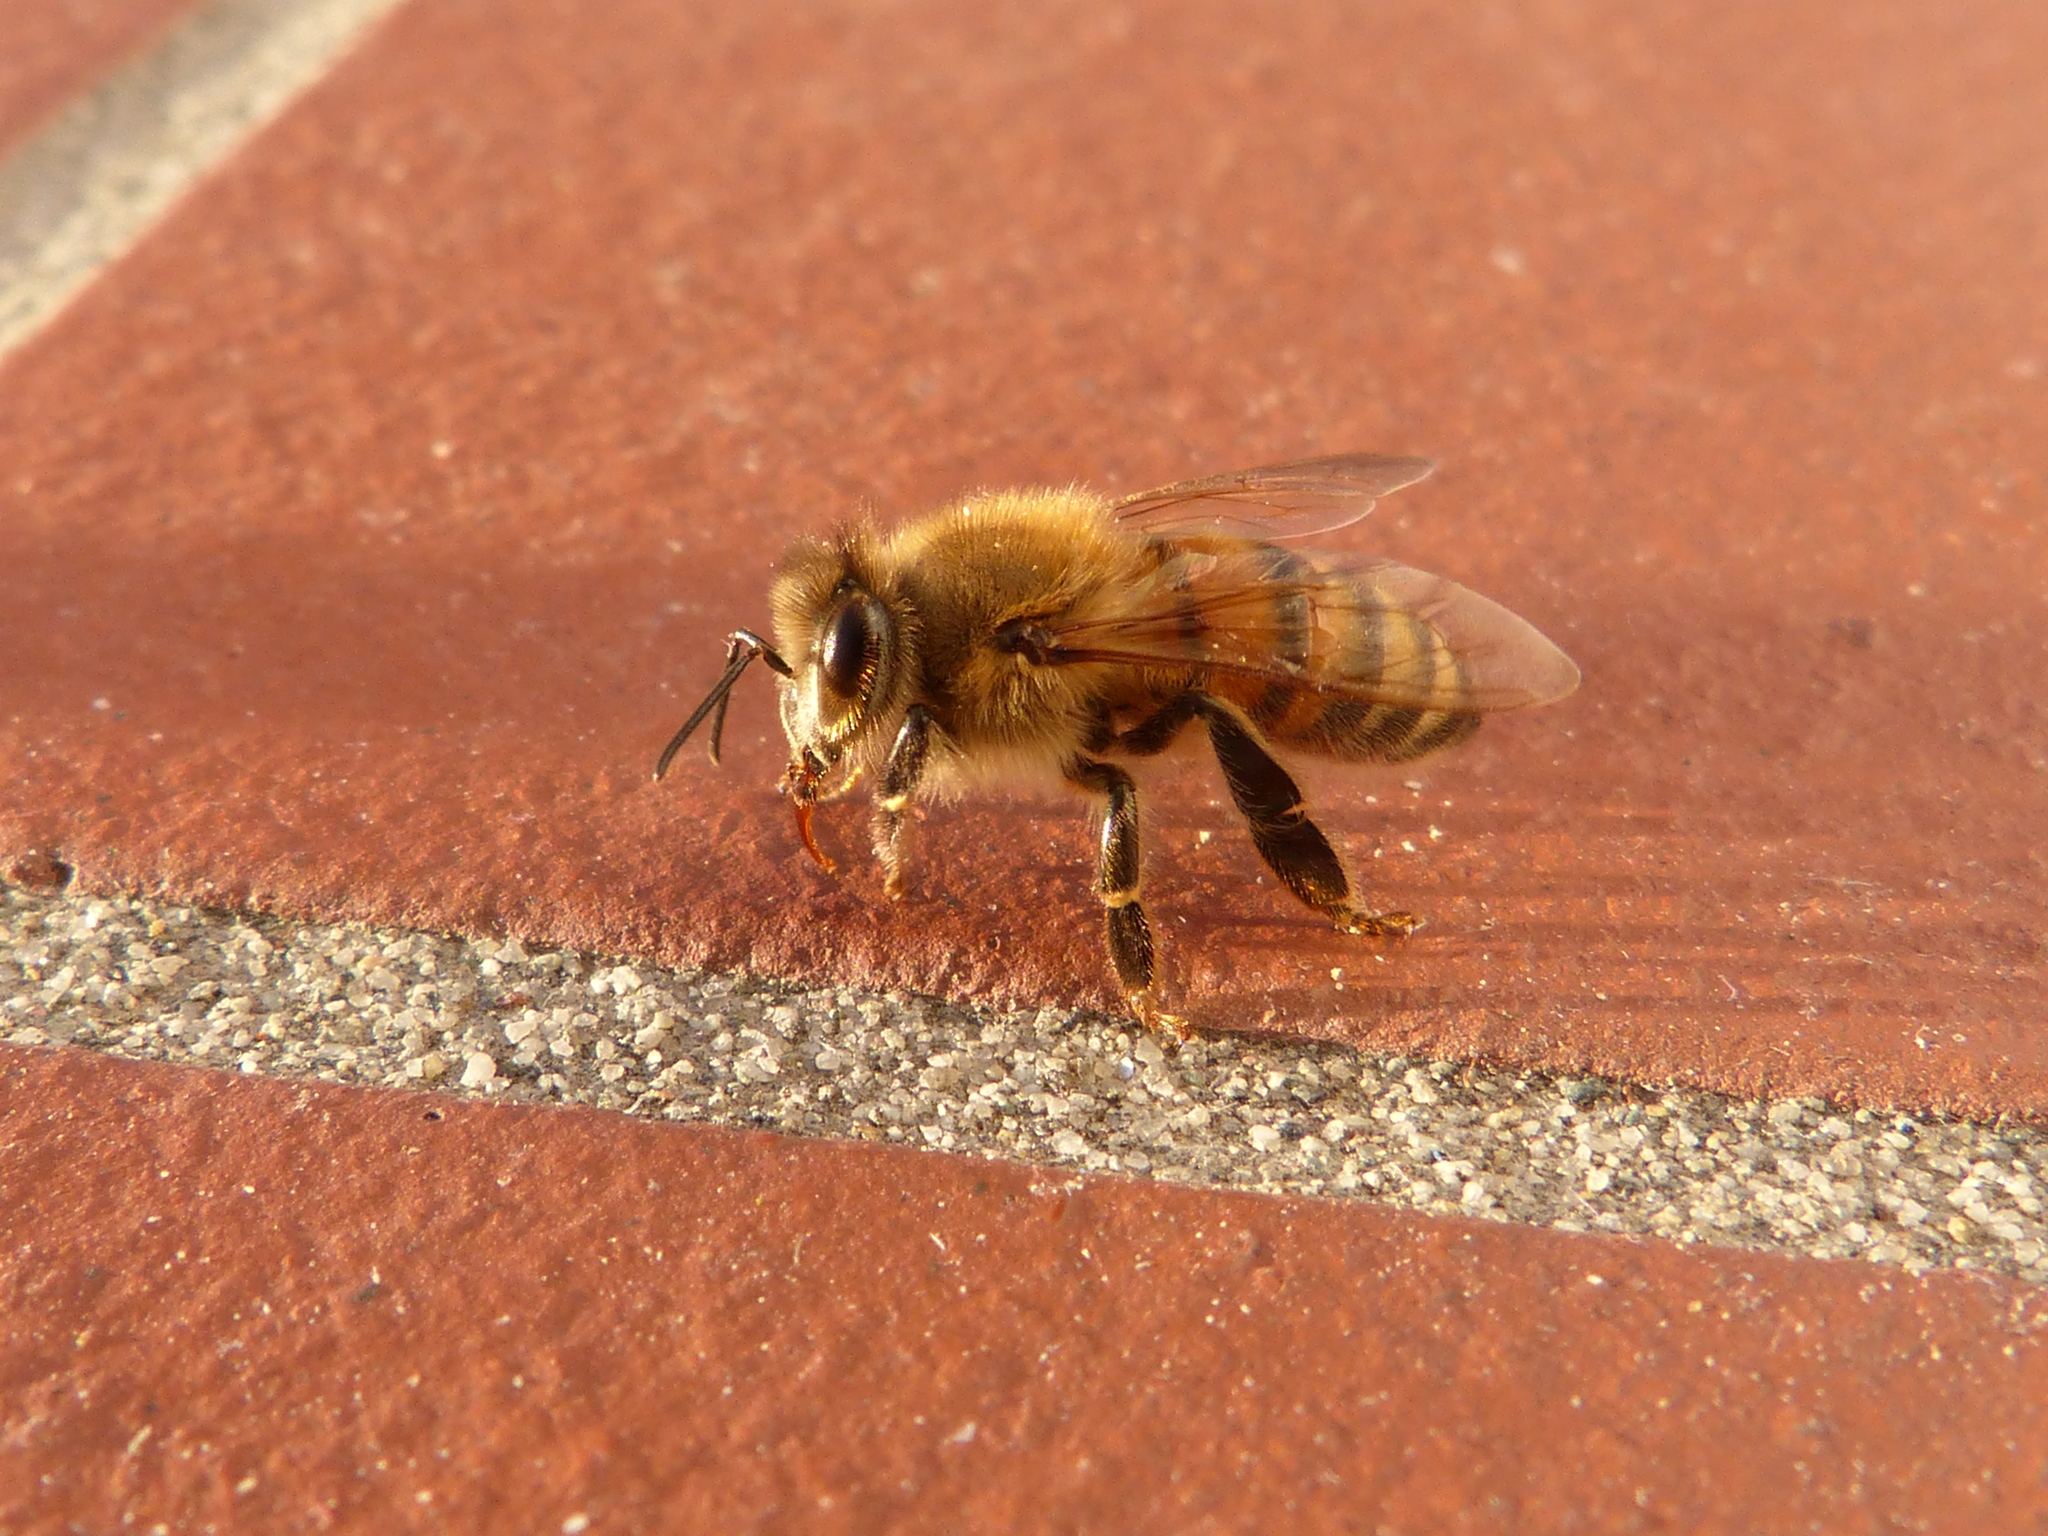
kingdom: Animalia
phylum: Arthropoda
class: Insecta
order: Hymenoptera
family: Apidae
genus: Apis
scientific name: Apis mellifera
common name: Honey bee
